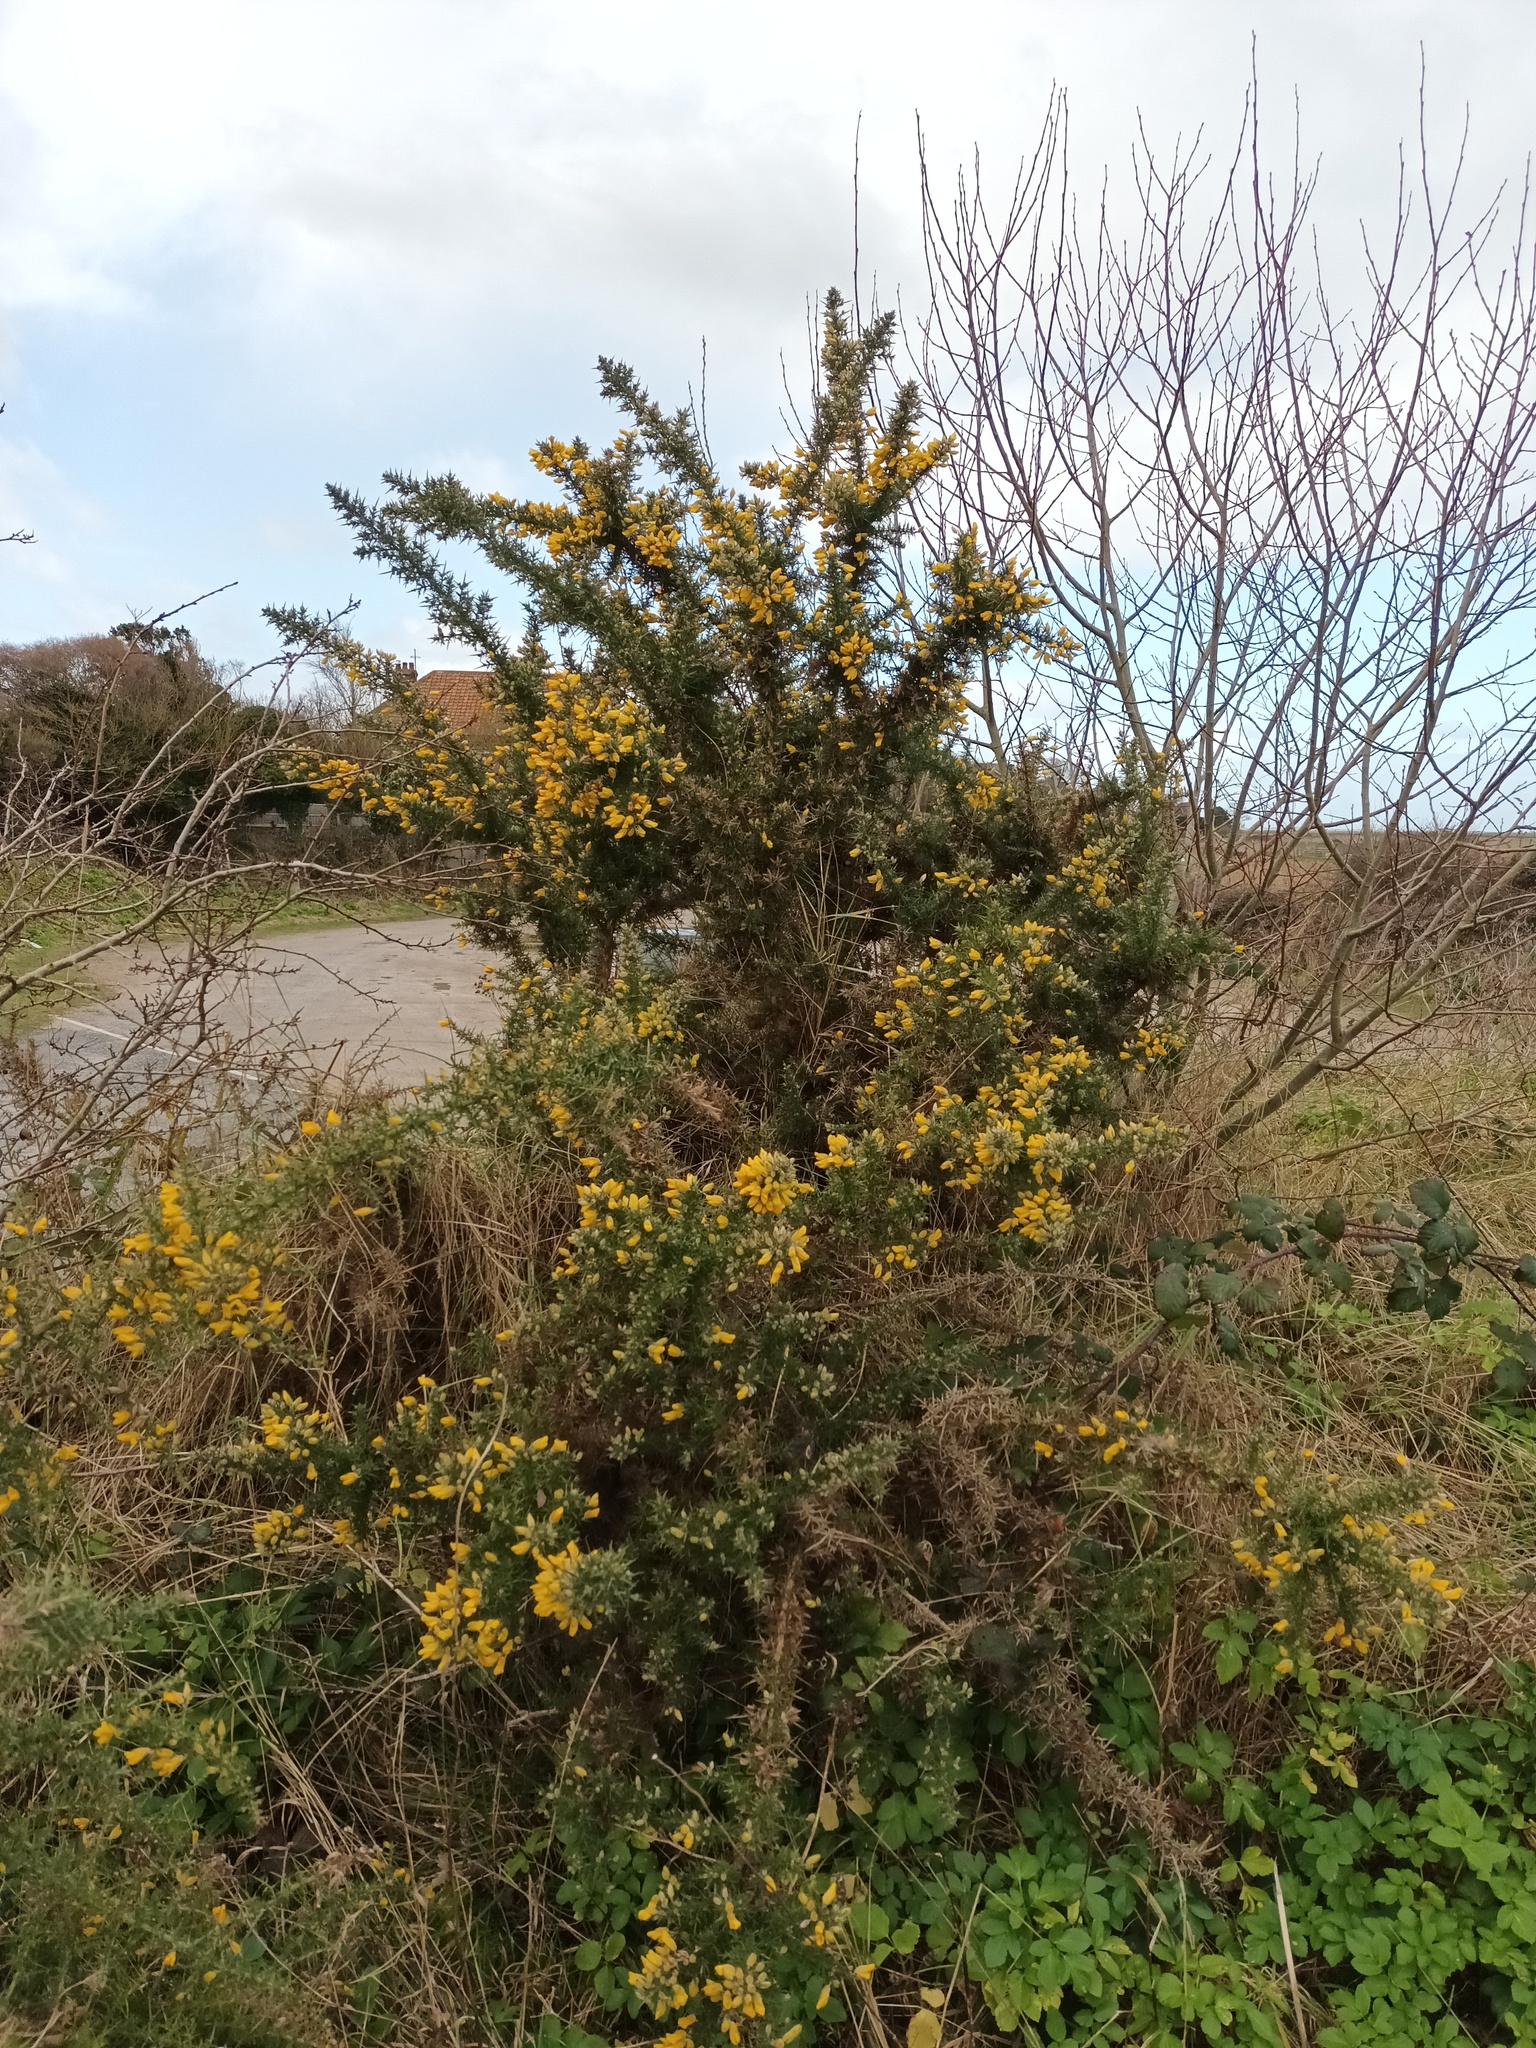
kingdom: Plantae
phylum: Tracheophyta
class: Magnoliopsida
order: Fabales
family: Fabaceae
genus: Ulex
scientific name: Ulex europaeus
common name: Common gorse
